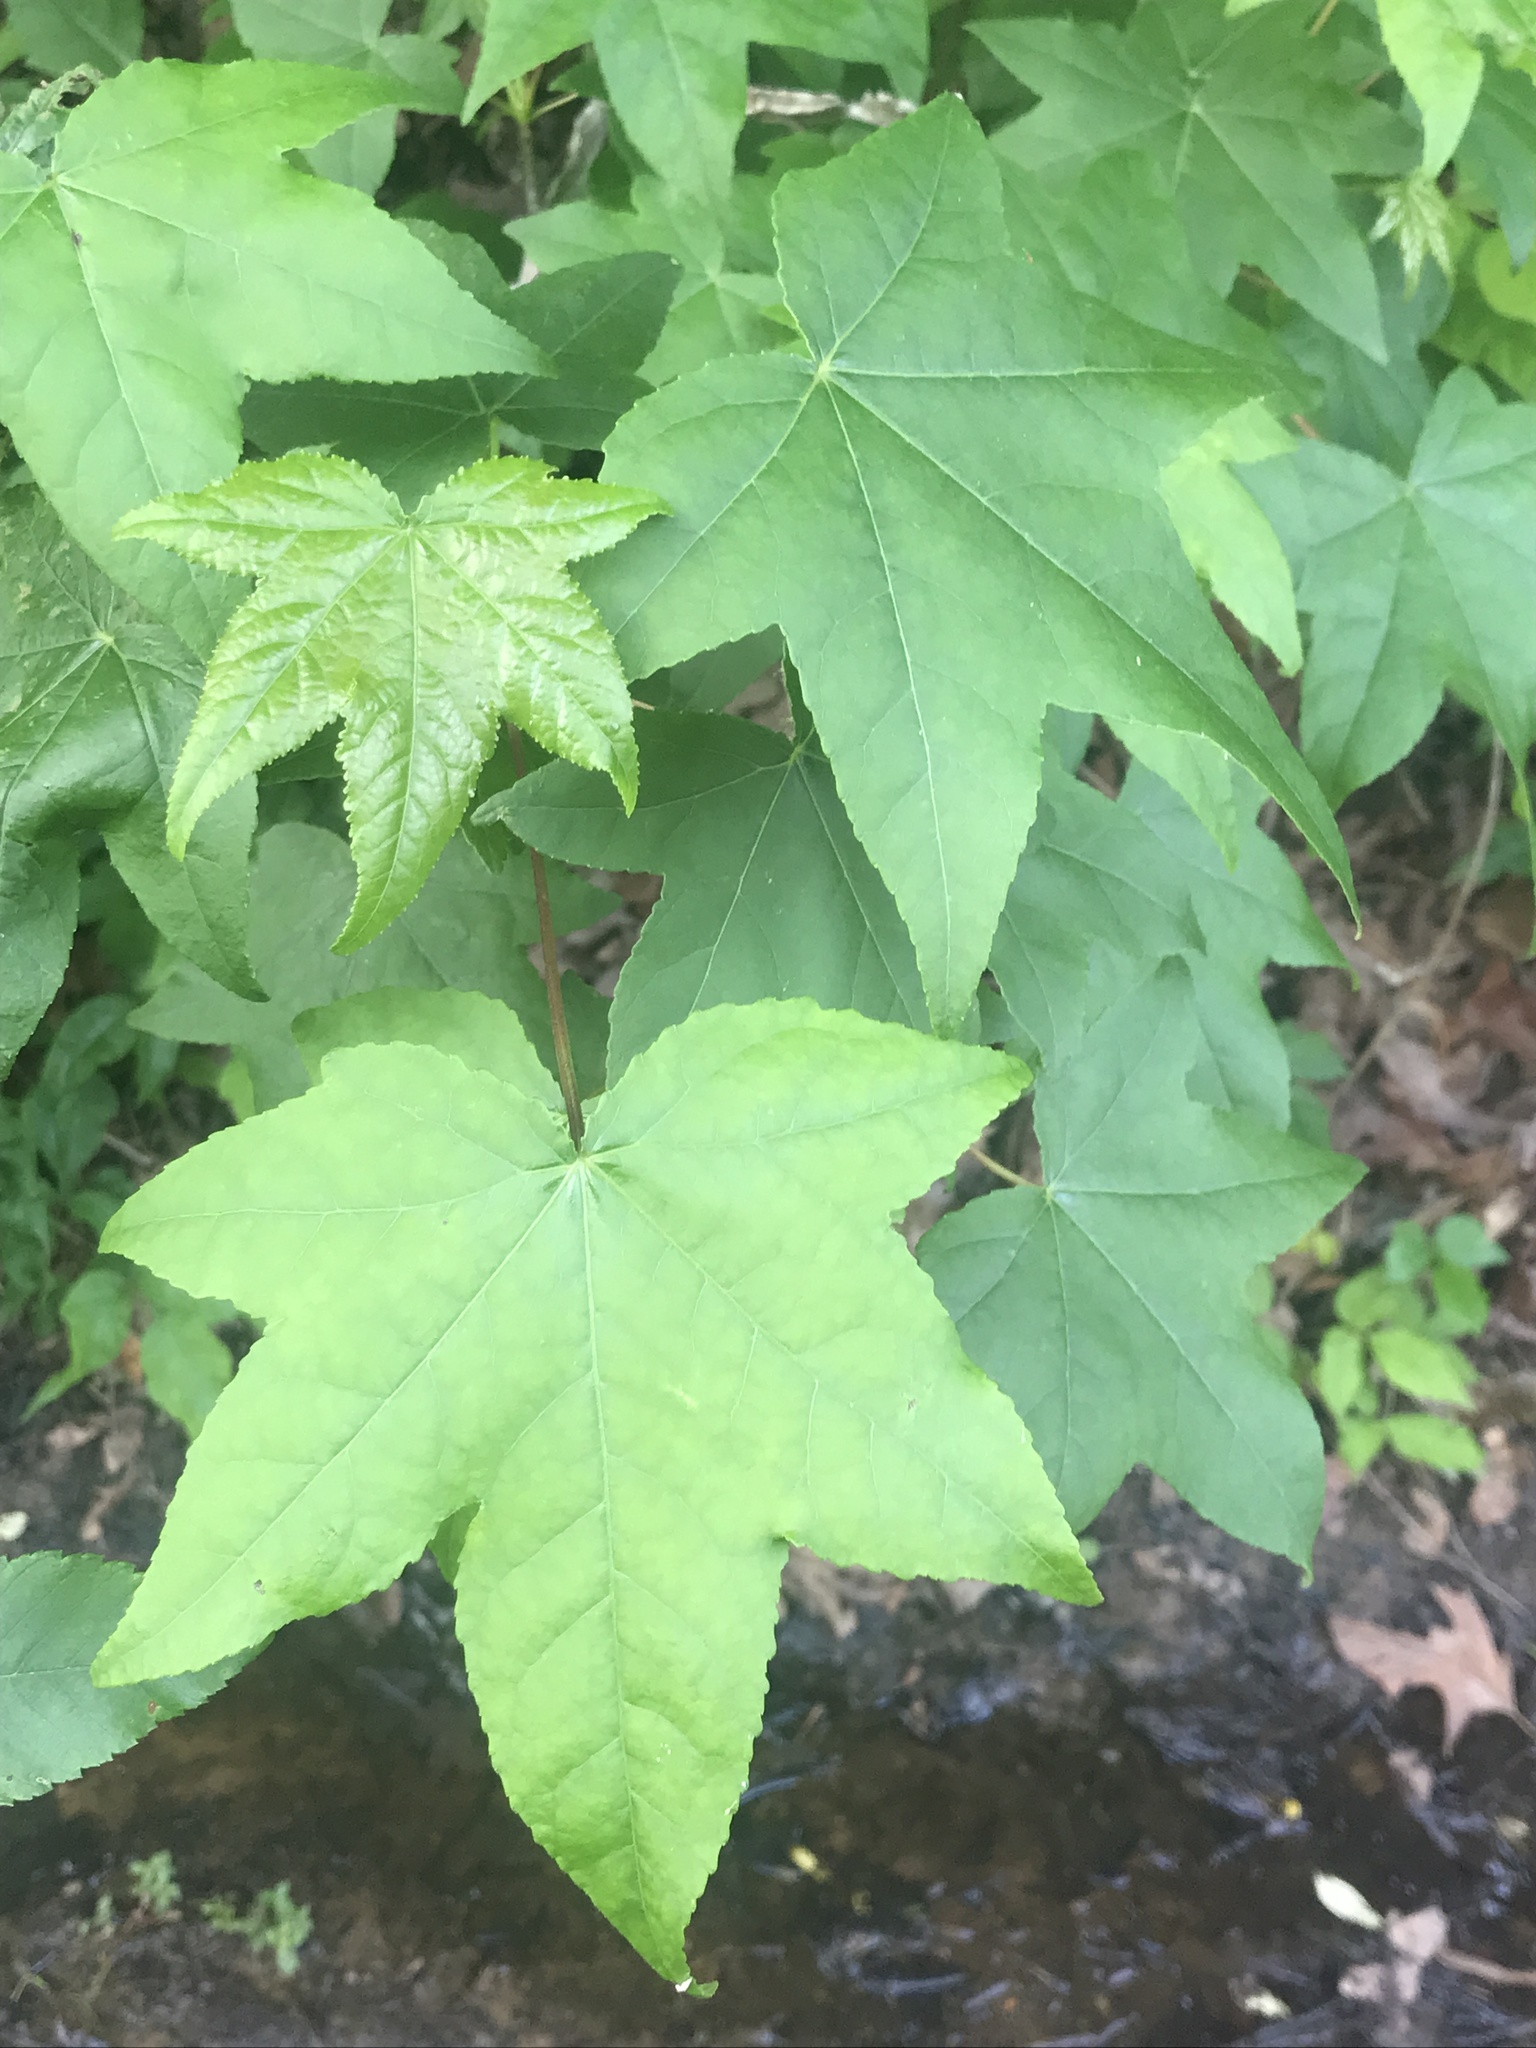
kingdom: Plantae
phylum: Tracheophyta
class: Magnoliopsida
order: Saxifragales
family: Altingiaceae
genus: Liquidambar
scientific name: Liquidambar styraciflua
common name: Sweet gum
